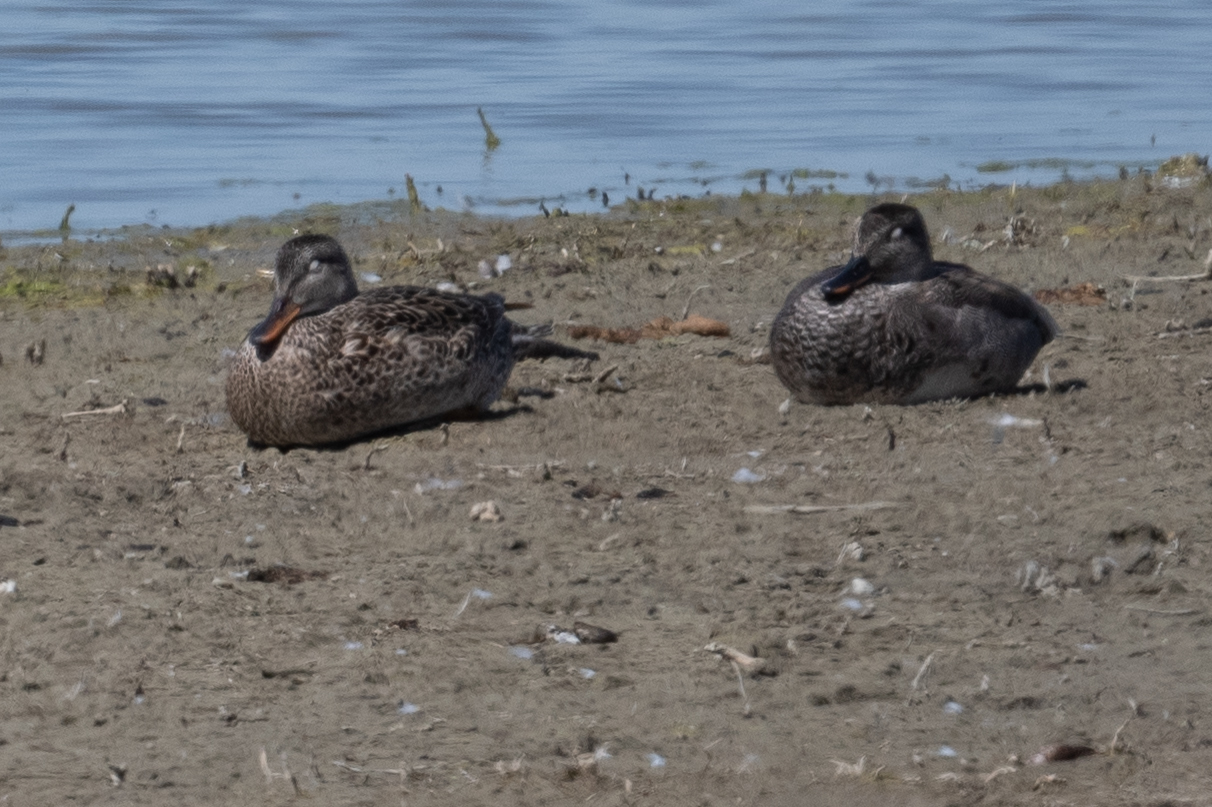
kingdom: Animalia
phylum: Chordata
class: Aves
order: Anseriformes
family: Anatidae
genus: Mareca
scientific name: Mareca strepera
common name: Gadwall
